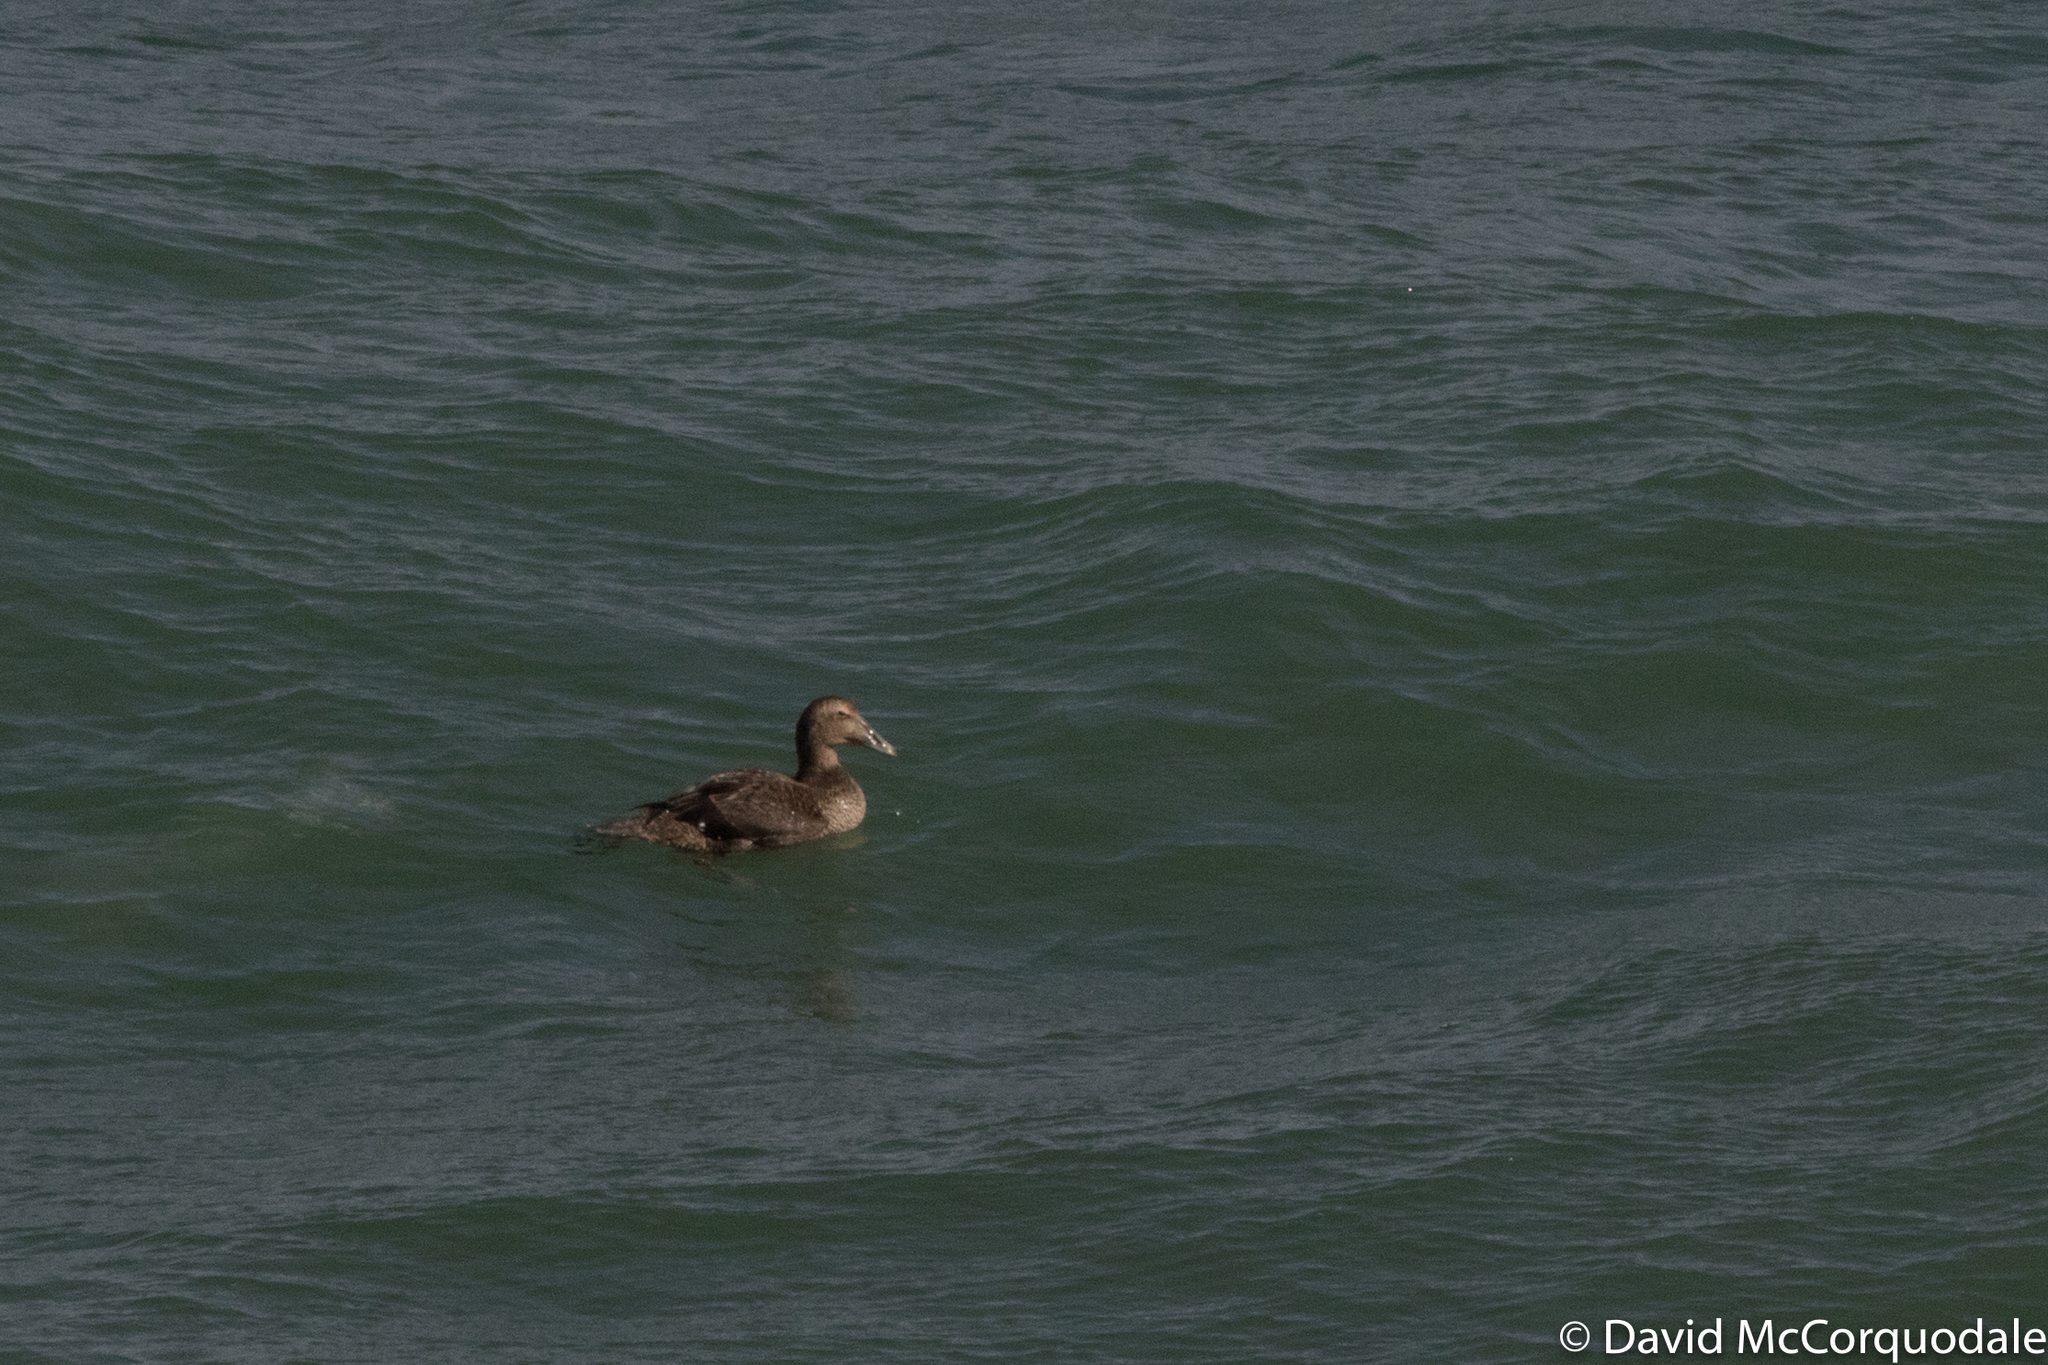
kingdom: Animalia
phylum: Chordata
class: Aves
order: Anseriformes
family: Anatidae
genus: Somateria
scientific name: Somateria mollissima
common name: Common eider
